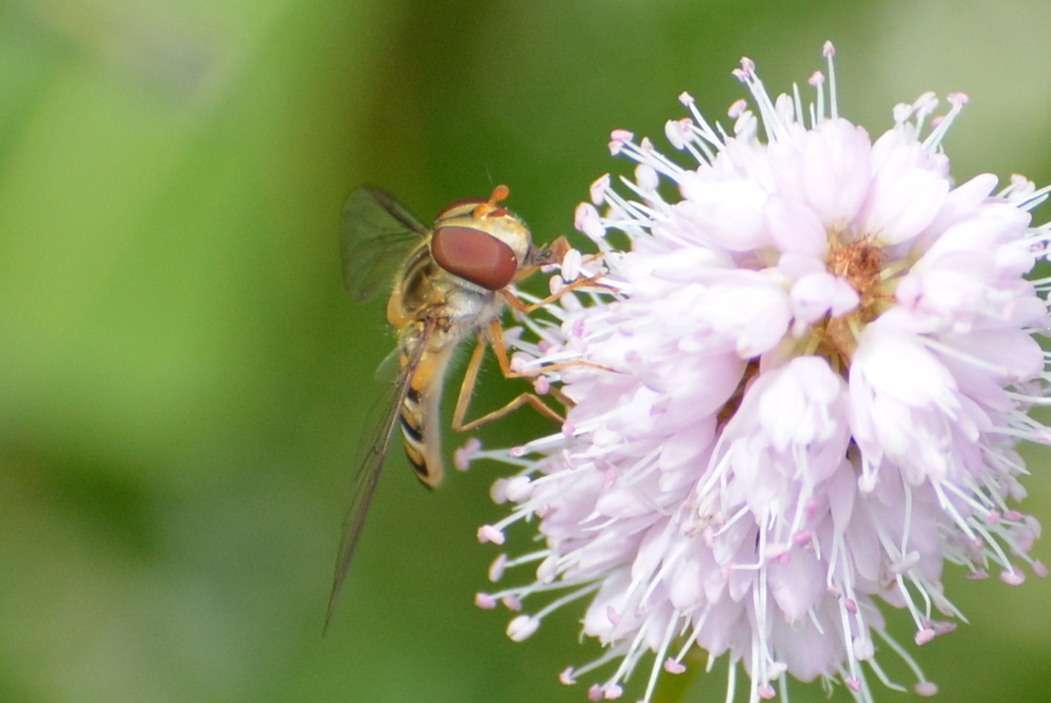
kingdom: Animalia
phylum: Arthropoda
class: Insecta
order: Diptera
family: Syrphidae
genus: Episyrphus
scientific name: Episyrphus balteatus
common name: Marmalade hoverfly
